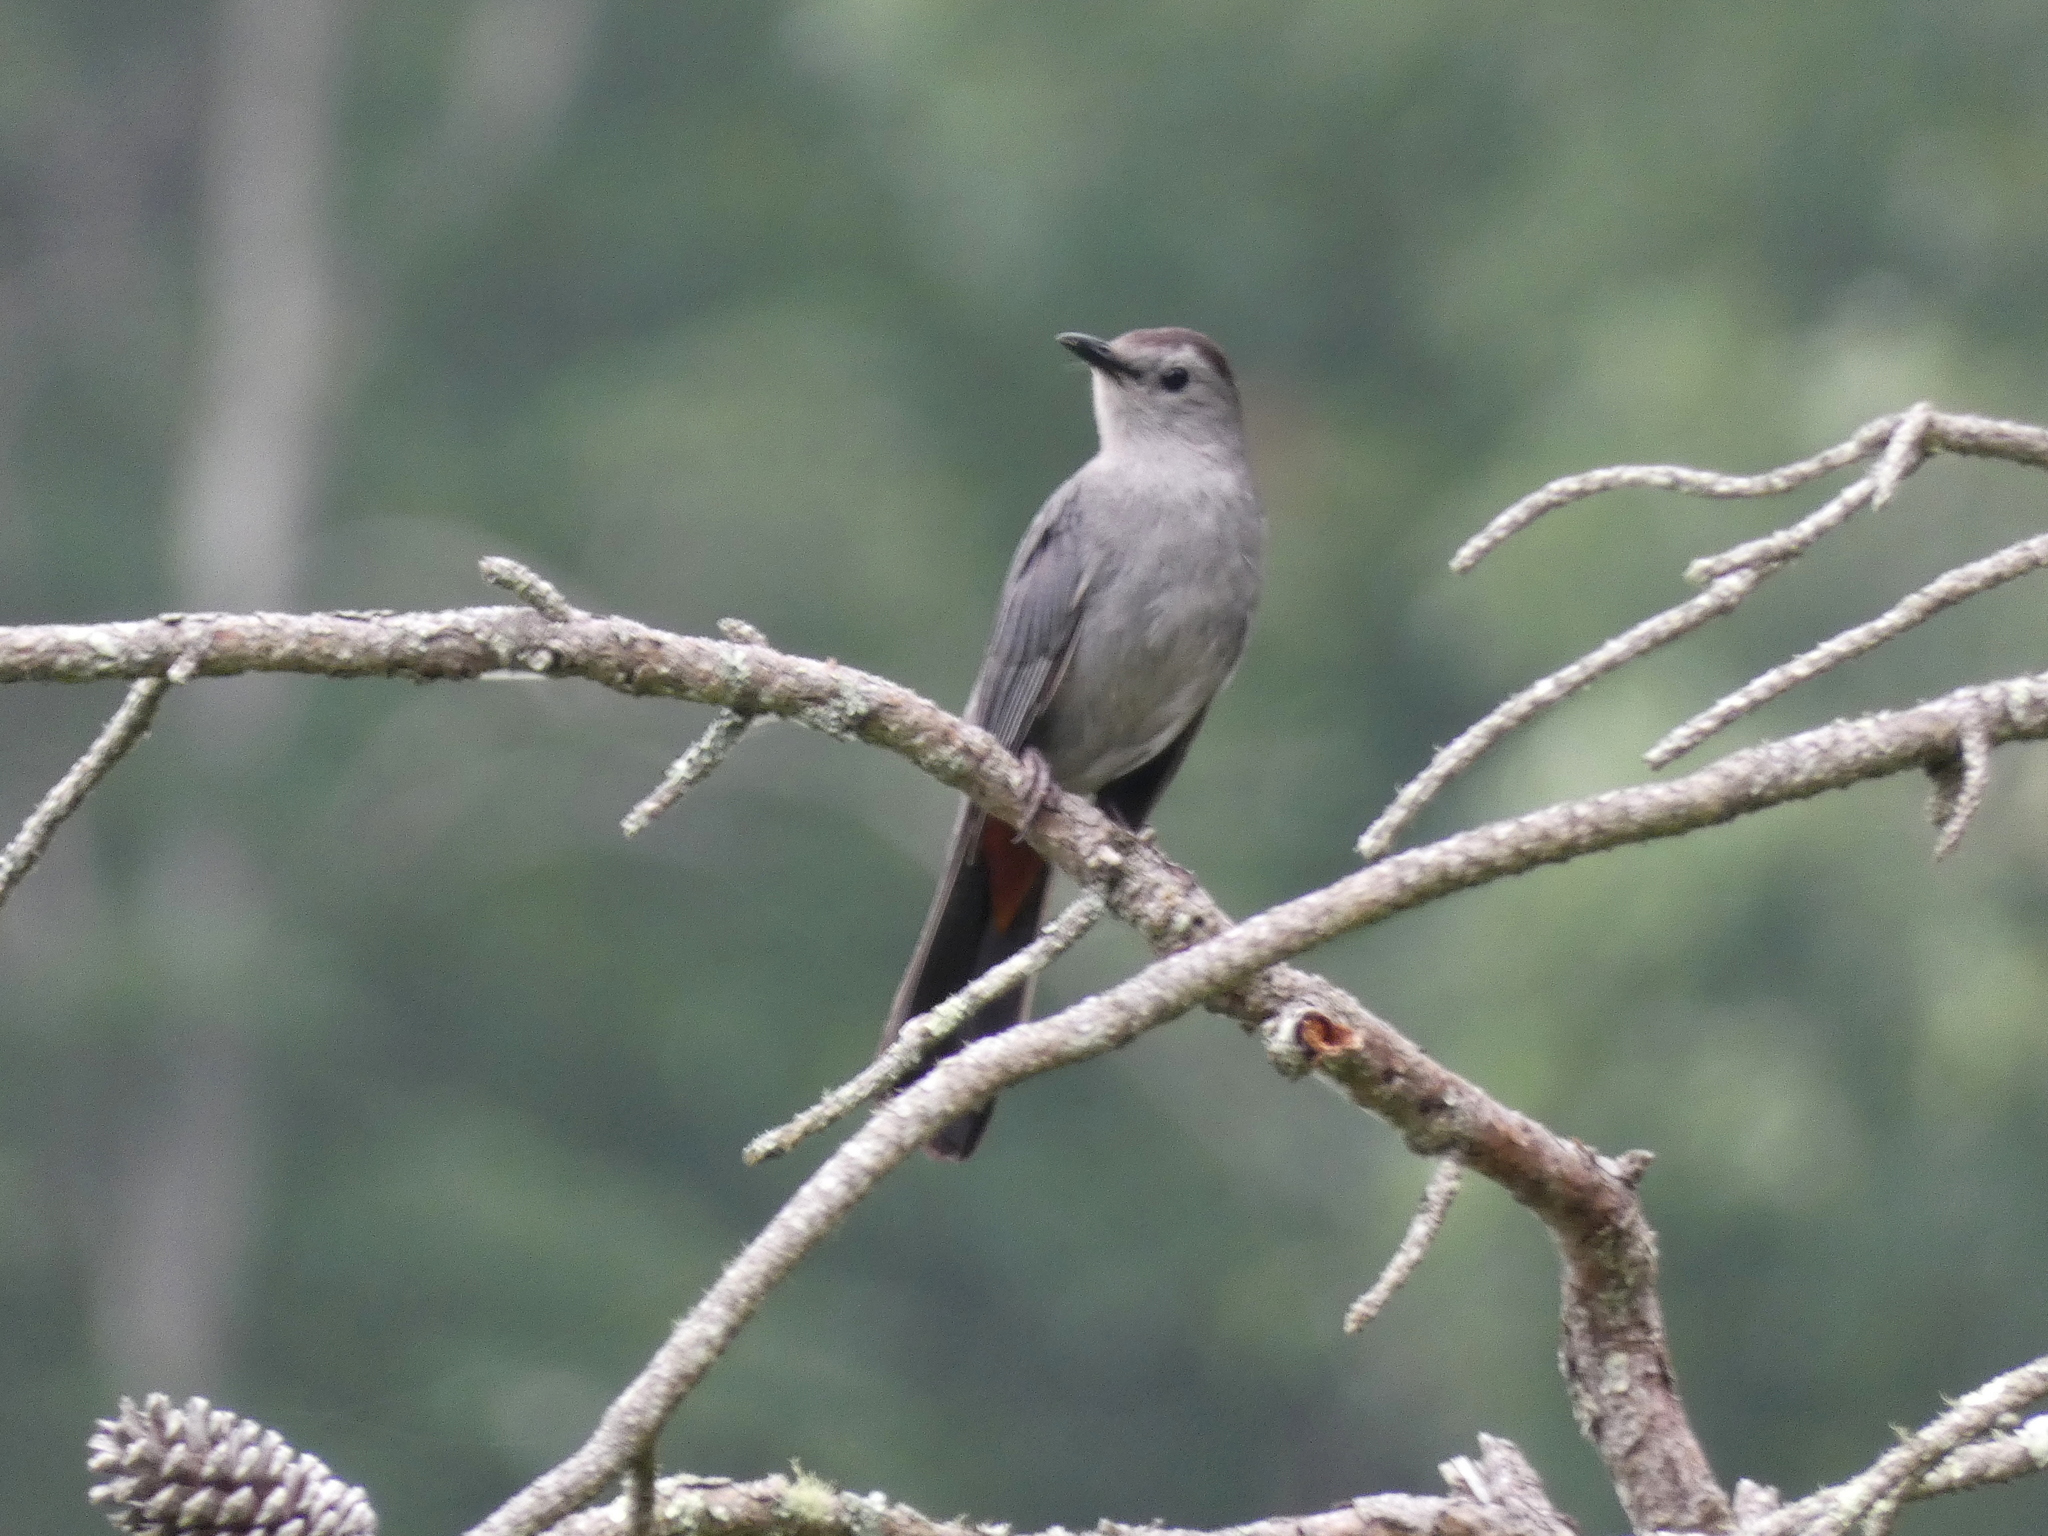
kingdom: Animalia
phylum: Chordata
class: Aves
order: Passeriformes
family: Mimidae
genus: Dumetella
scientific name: Dumetella carolinensis
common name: Gray catbird
